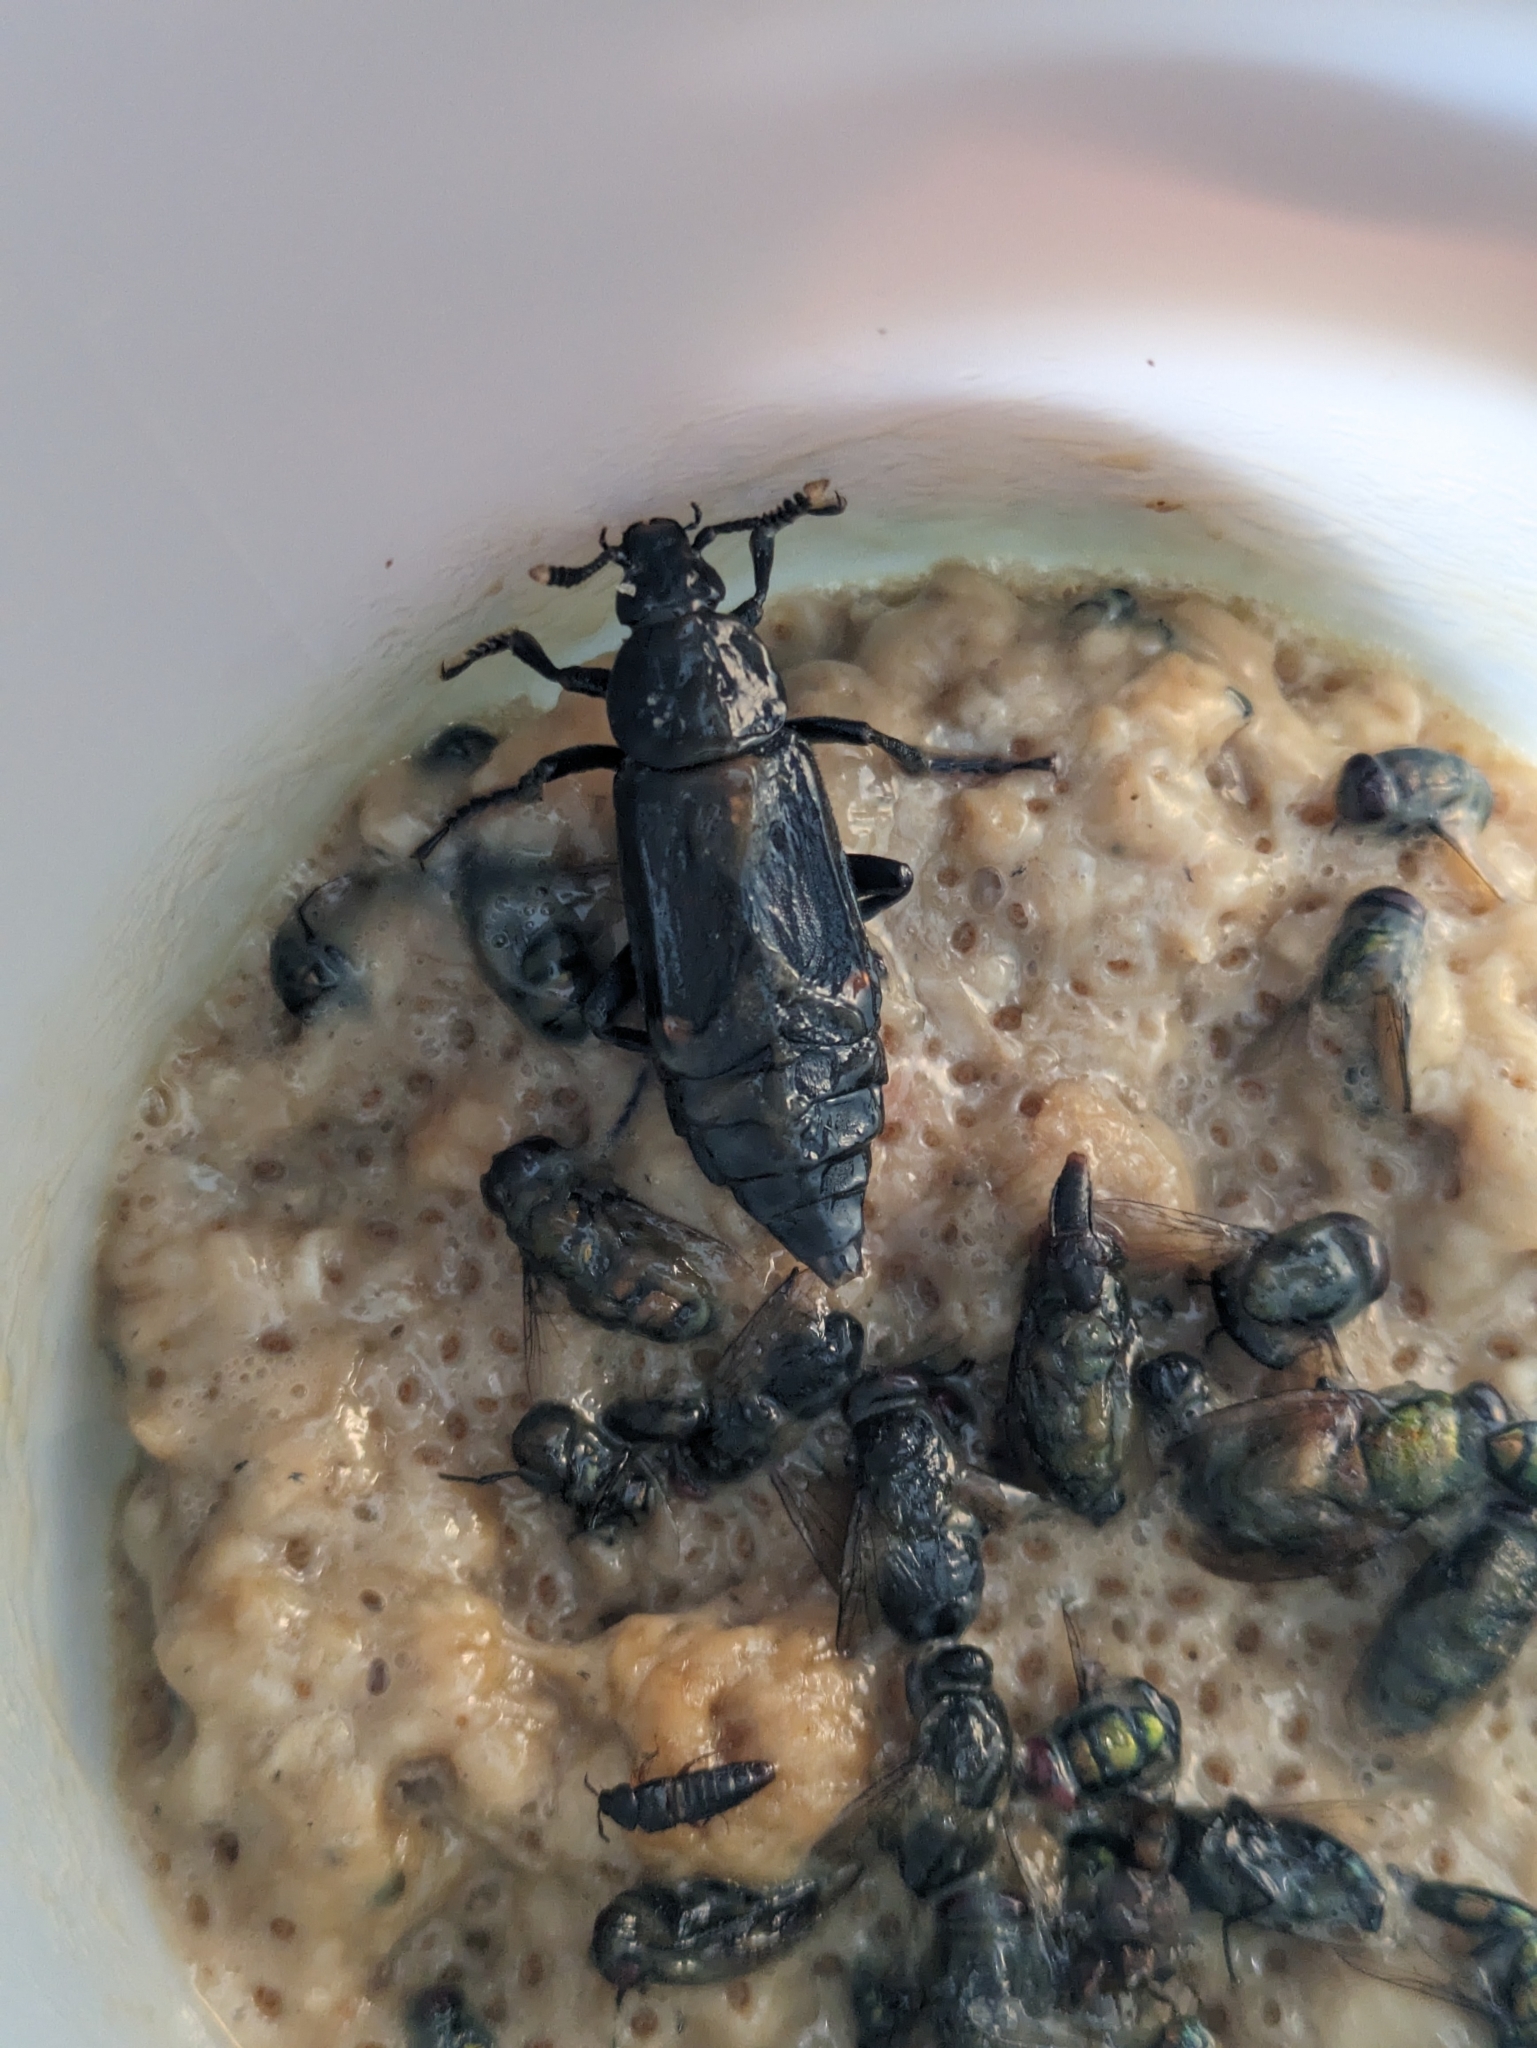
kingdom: Animalia
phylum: Arthropoda
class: Insecta
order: Coleoptera
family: Staphylinidae
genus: Diamesus
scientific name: Diamesus bimaculatus
